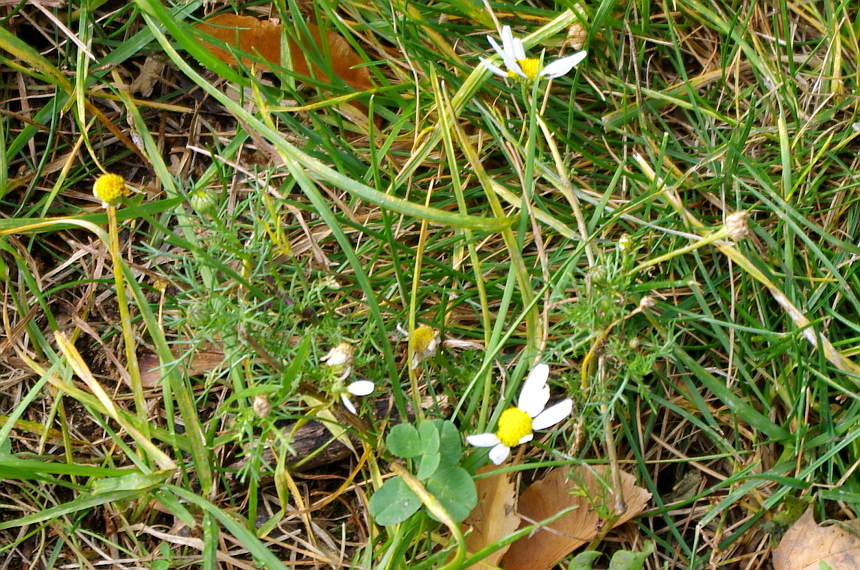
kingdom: Plantae
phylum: Tracheophyta
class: Magnoliopsida
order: Asterales
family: Asteraceae
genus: Tripleurospermum
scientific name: Tripleurospermum inodorum
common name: Scentless mayweed
